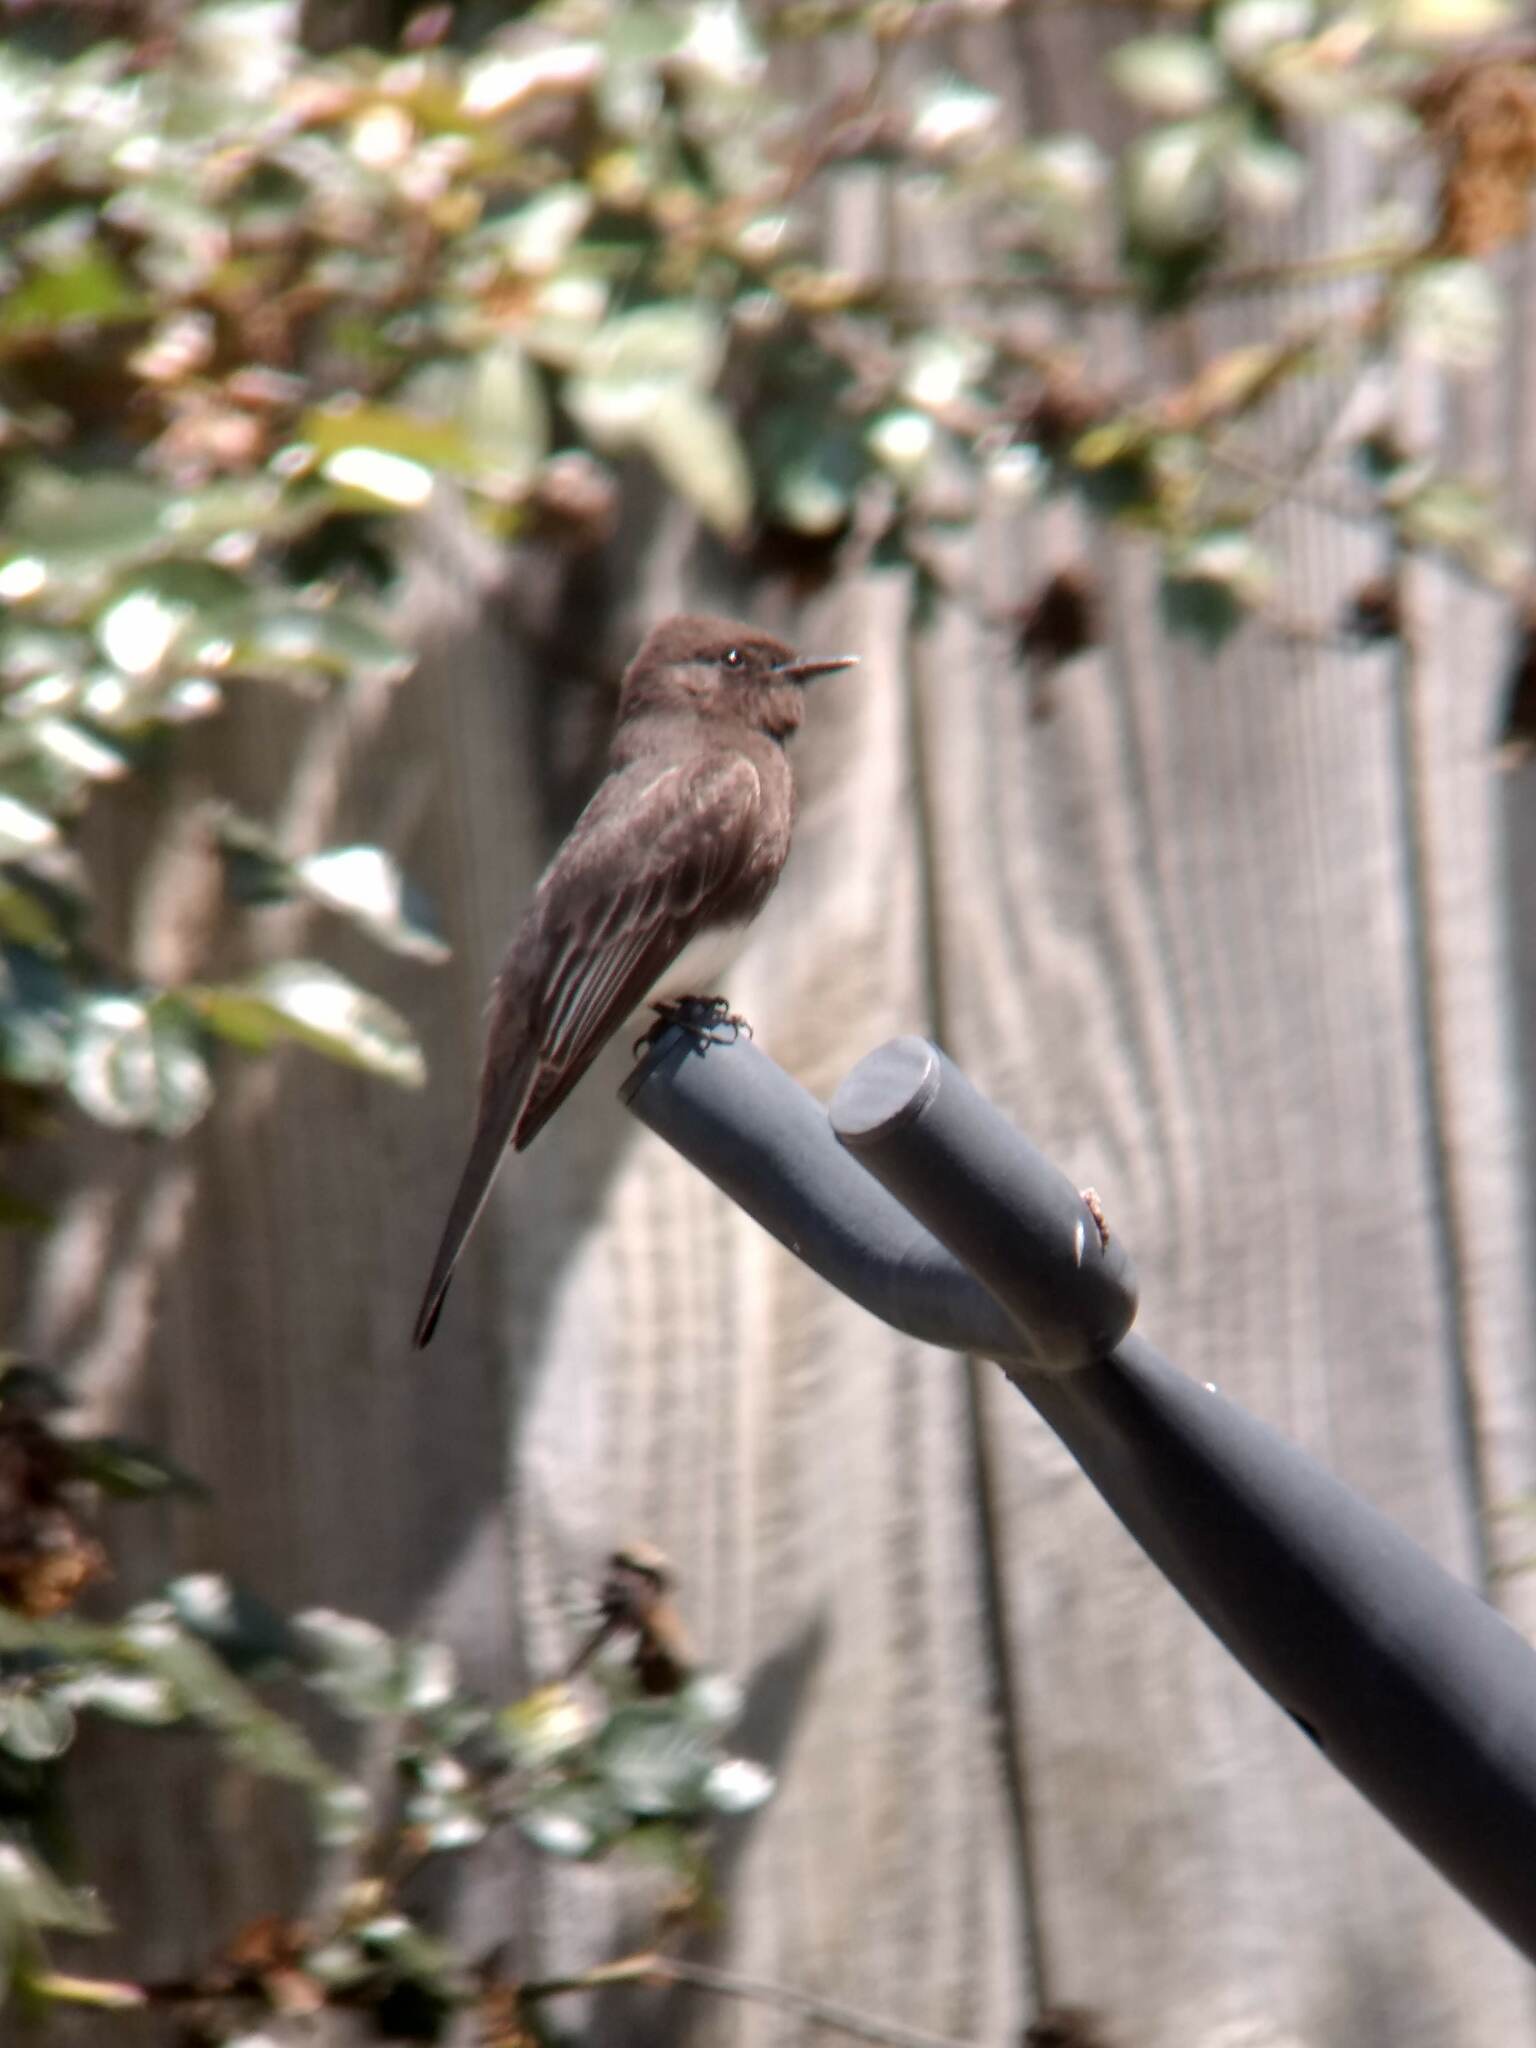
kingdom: Animalia
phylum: Chordata
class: Aves
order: Passeriformes
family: Tyrannidae
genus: Sayornis
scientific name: Sayornis nigricans
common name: Black phoebe
